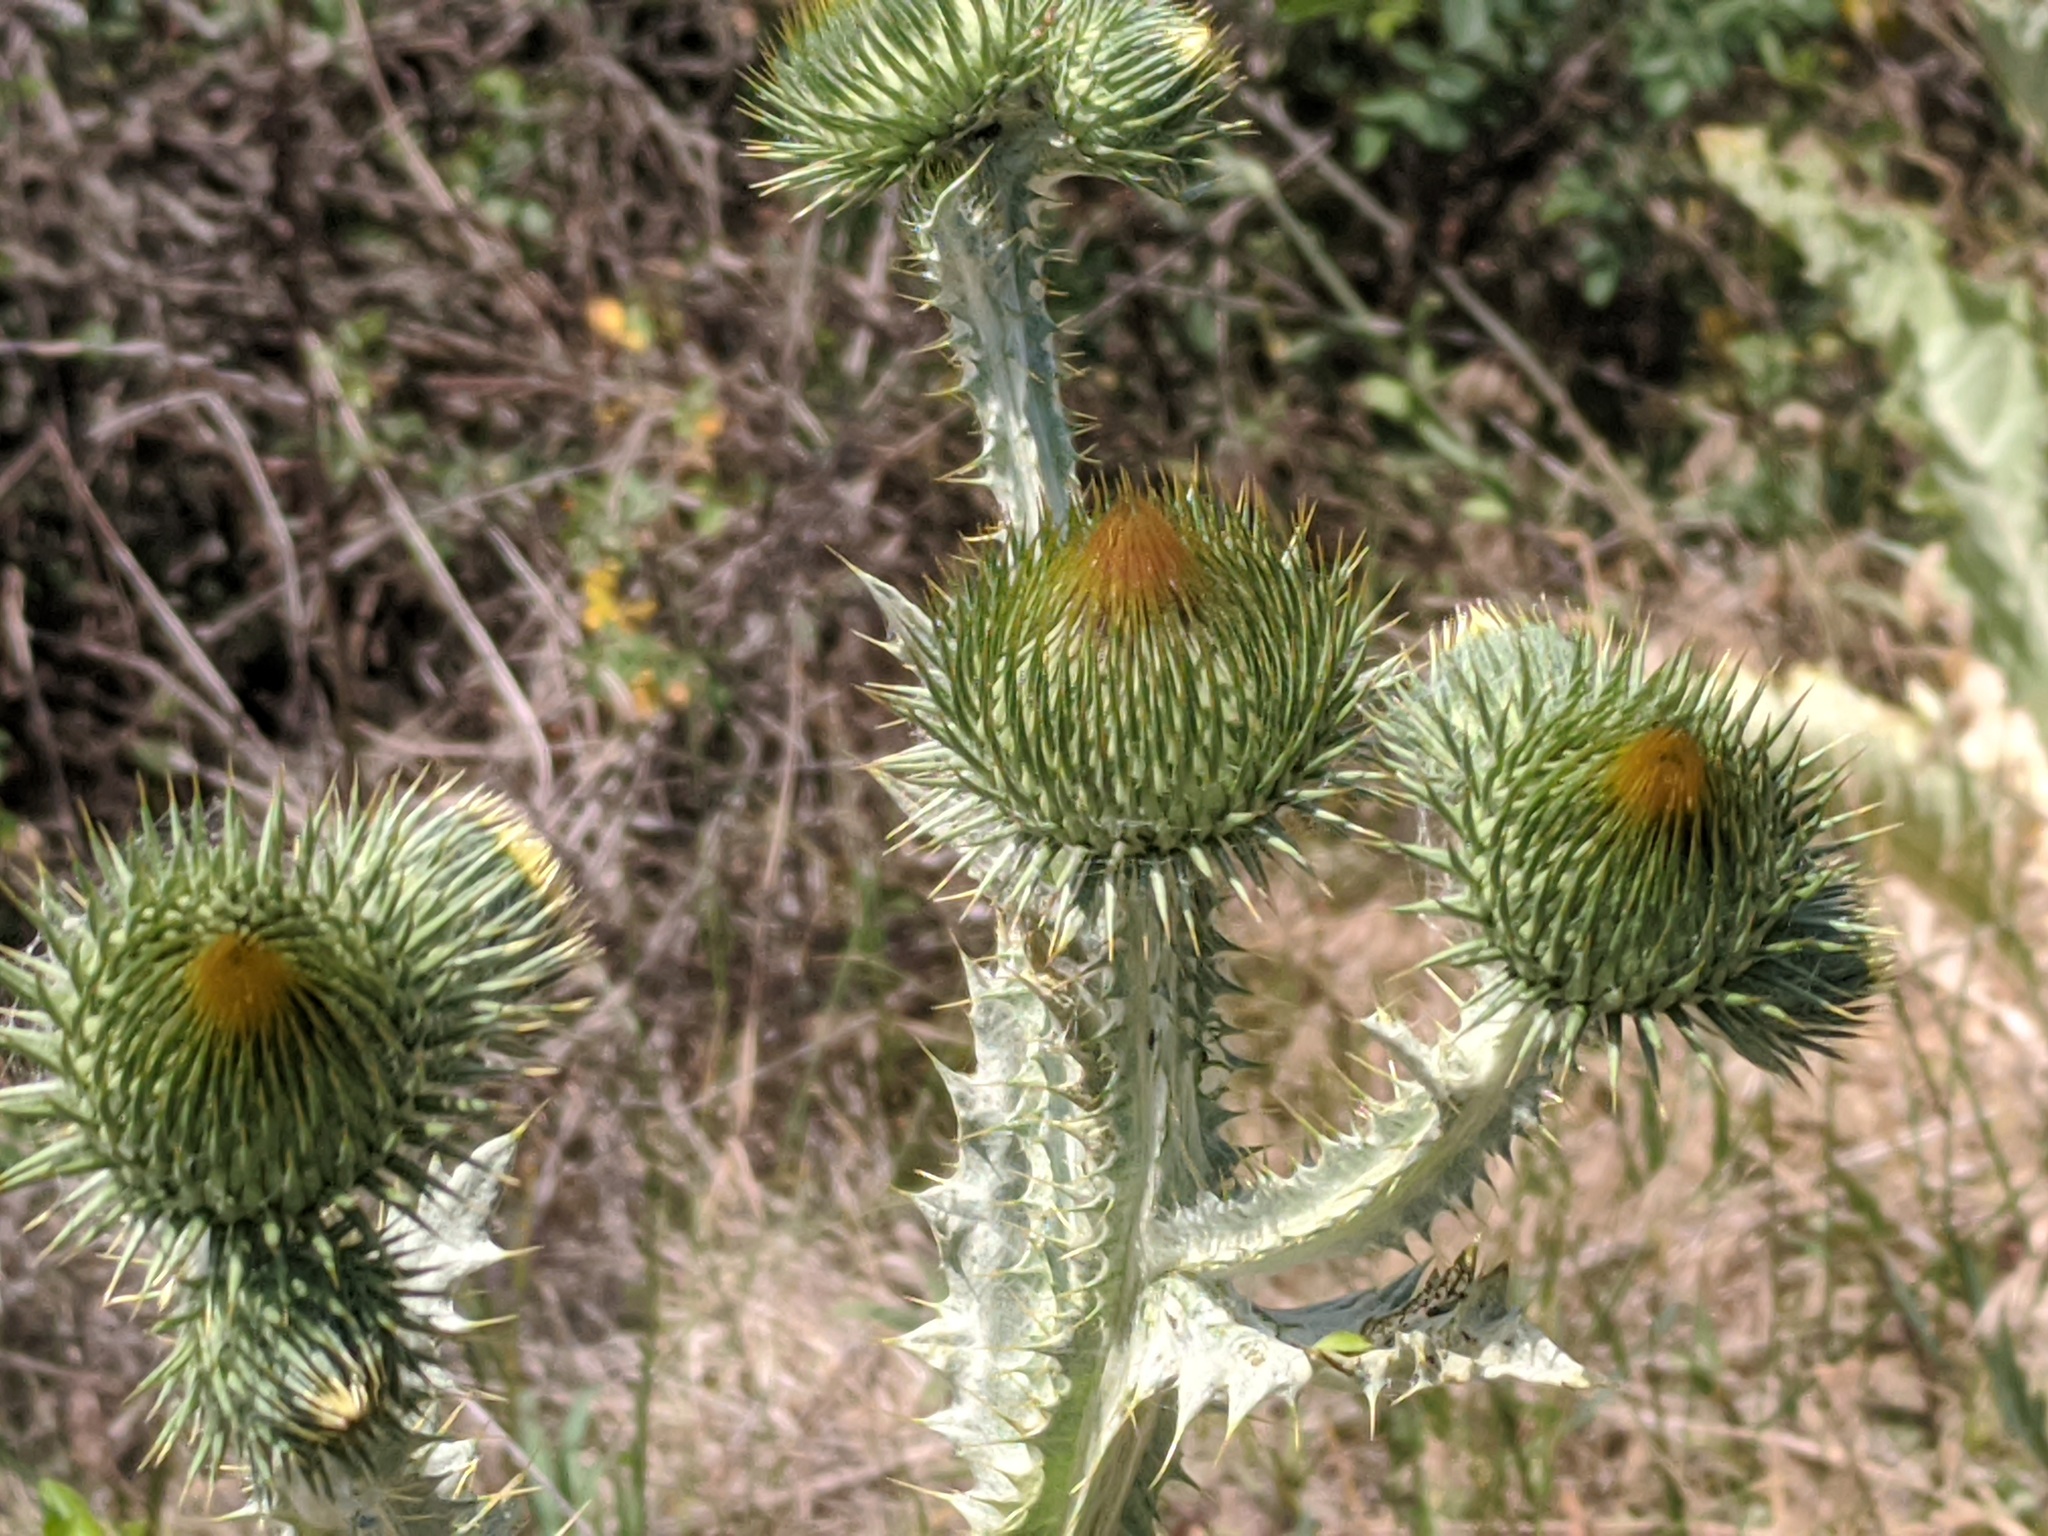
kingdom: Plantae
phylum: Tracheophyta
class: Magnoliopsida
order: Asterales
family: Asteraceae
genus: Onopordum
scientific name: Onopordum acanthium
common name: Scotch thistle
